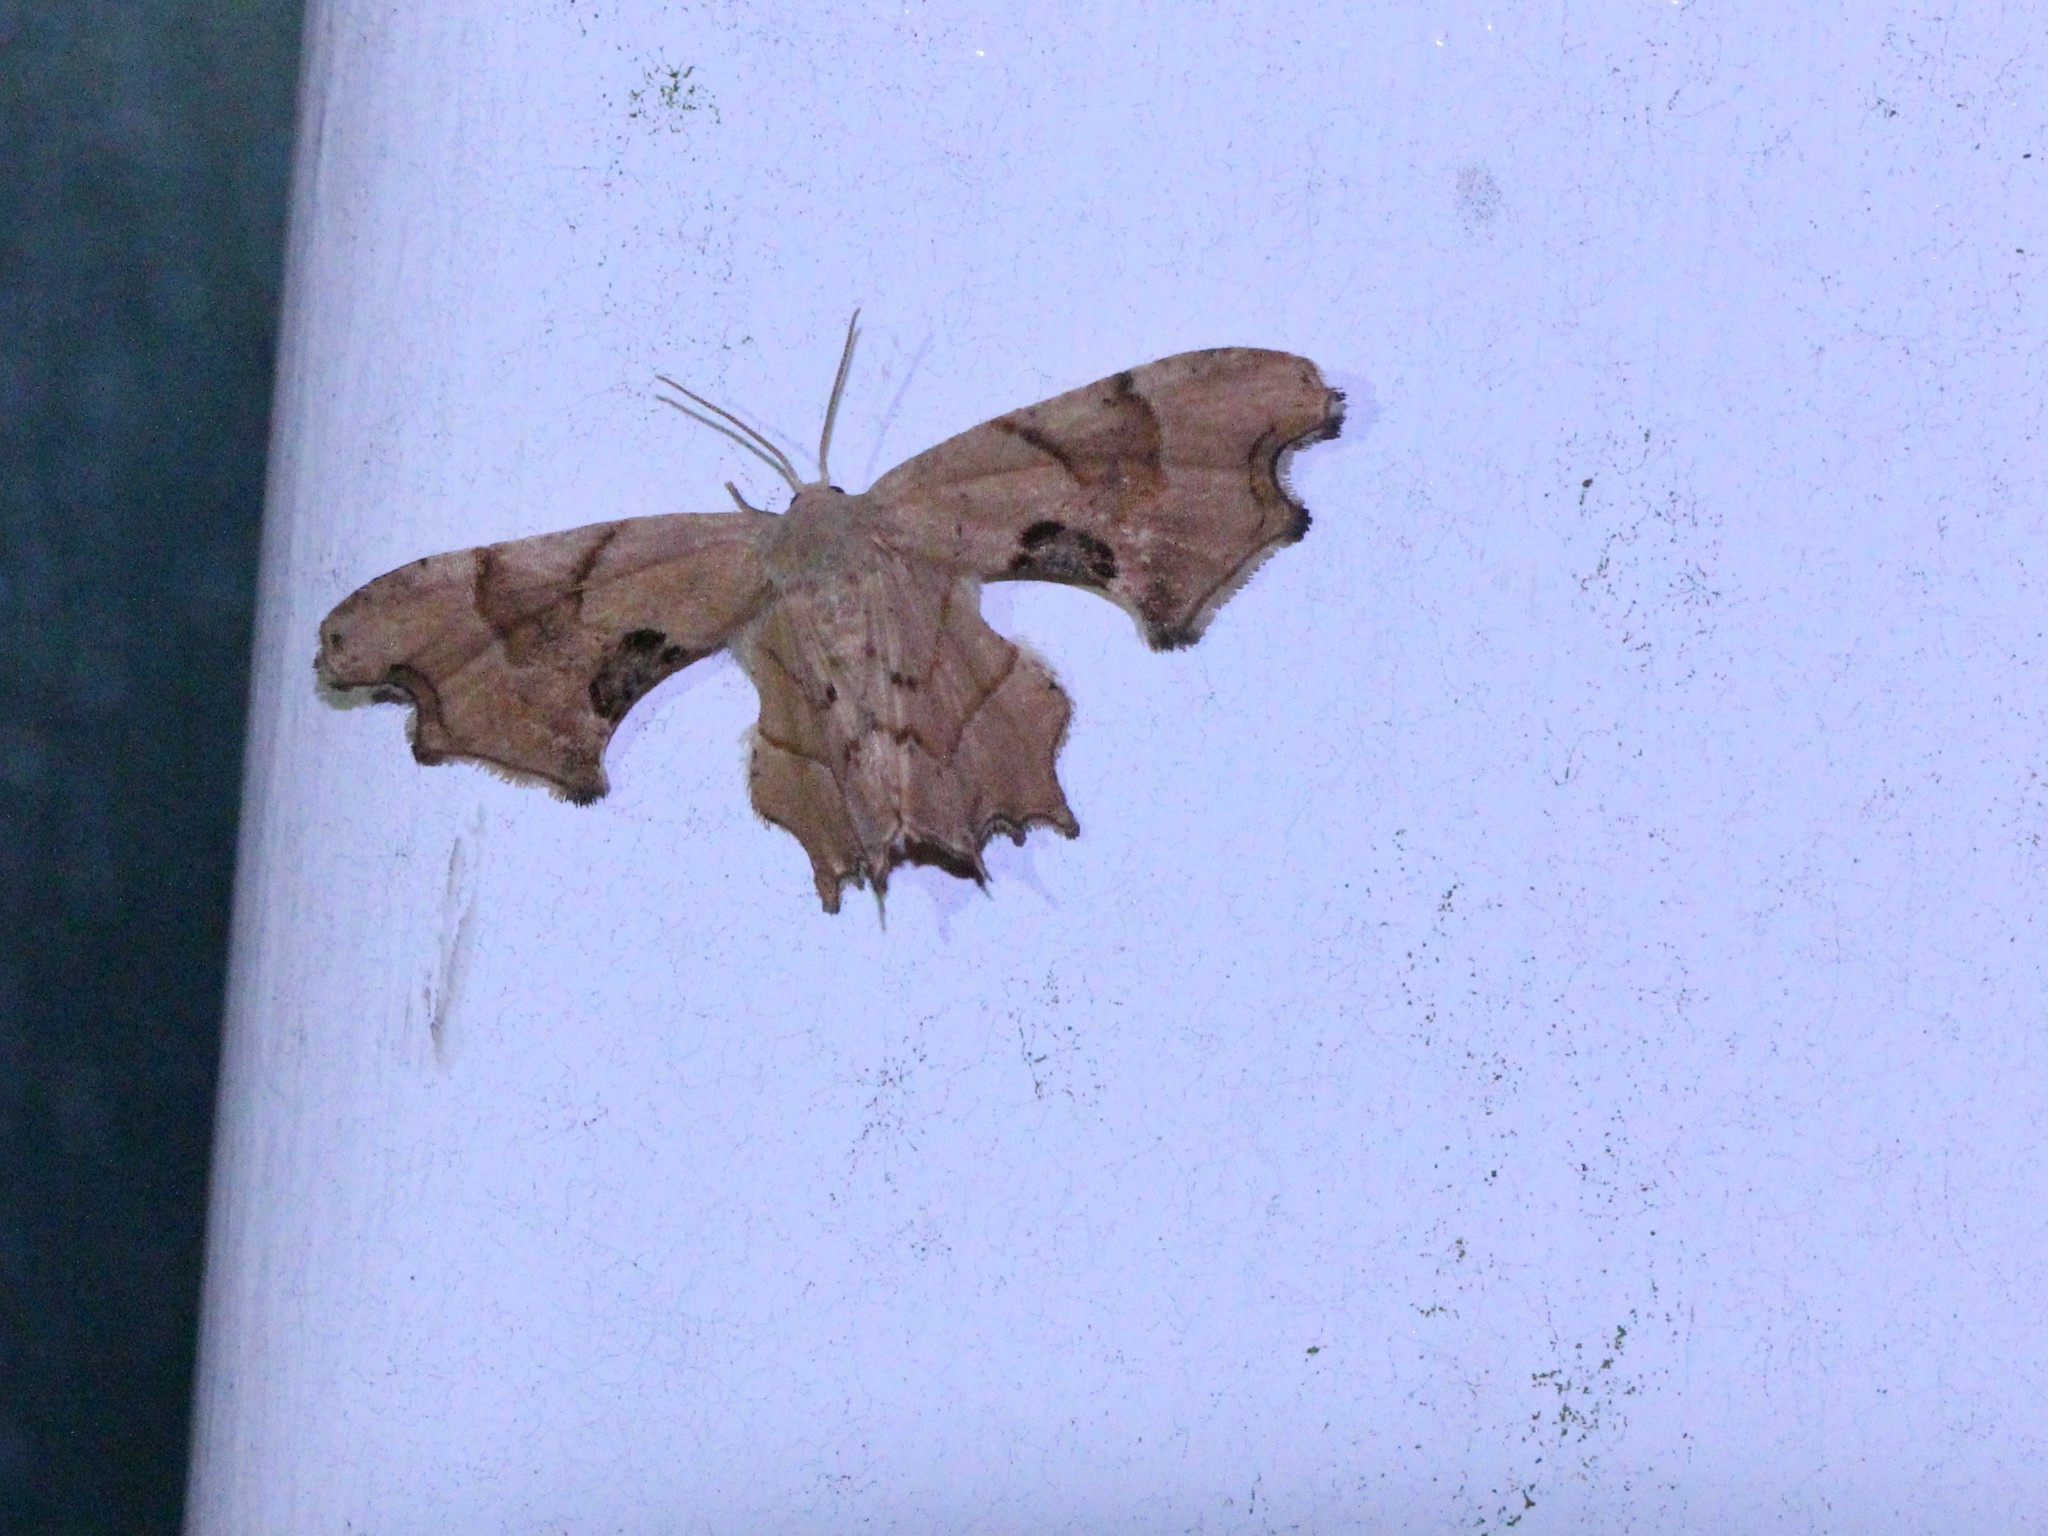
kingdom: Animalia
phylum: Arthropoda
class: Insecta
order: Lepidoptera
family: Uraniidae
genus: Epiplema
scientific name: Epiplema Calledapteryx dryopterata
